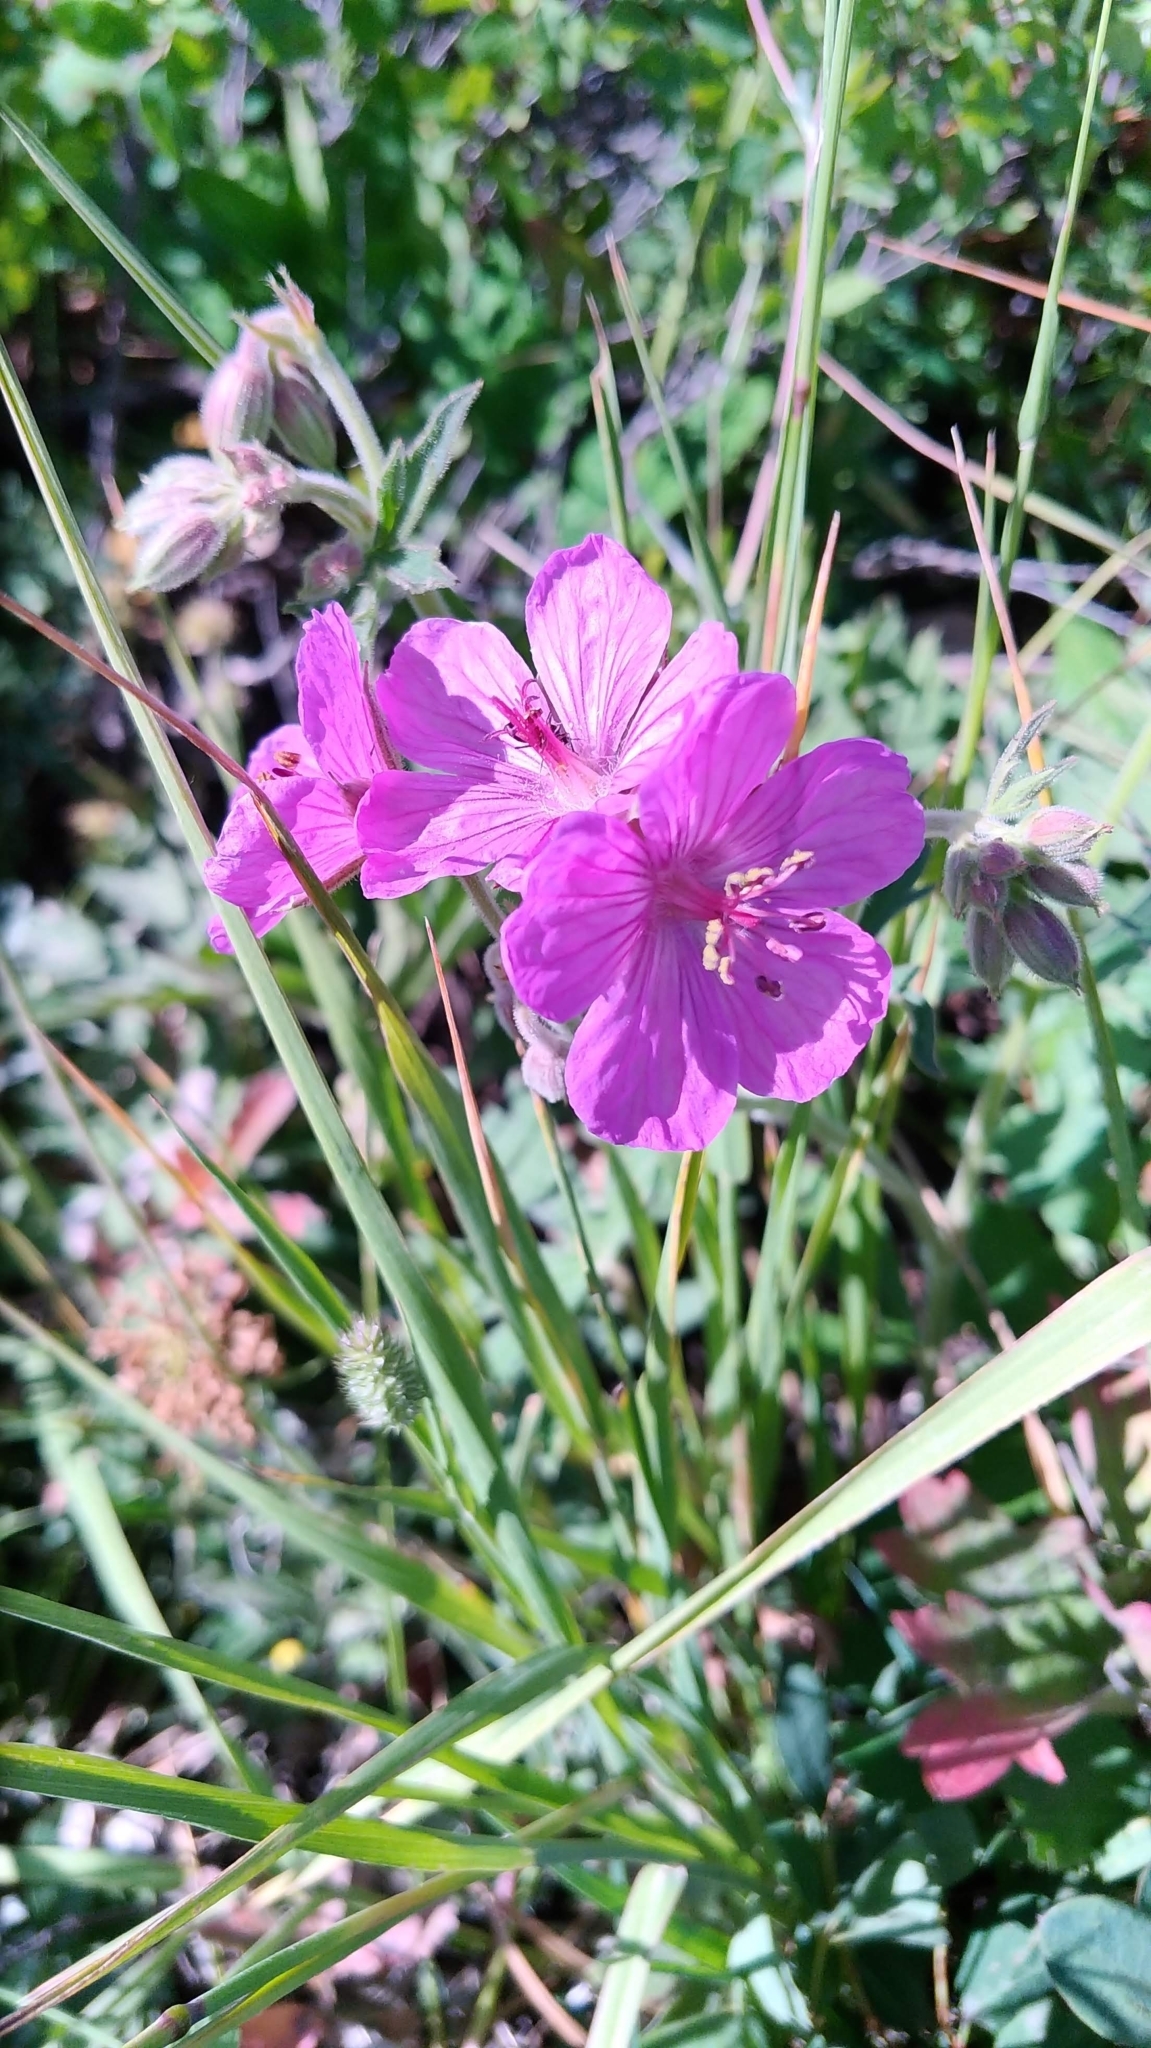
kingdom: Plantae
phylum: Tracheophyta
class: Magnoliopsida
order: Geraniales
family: Geraniaceae
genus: Geranium
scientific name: Geranium viscosissimum
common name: Purple geranium
